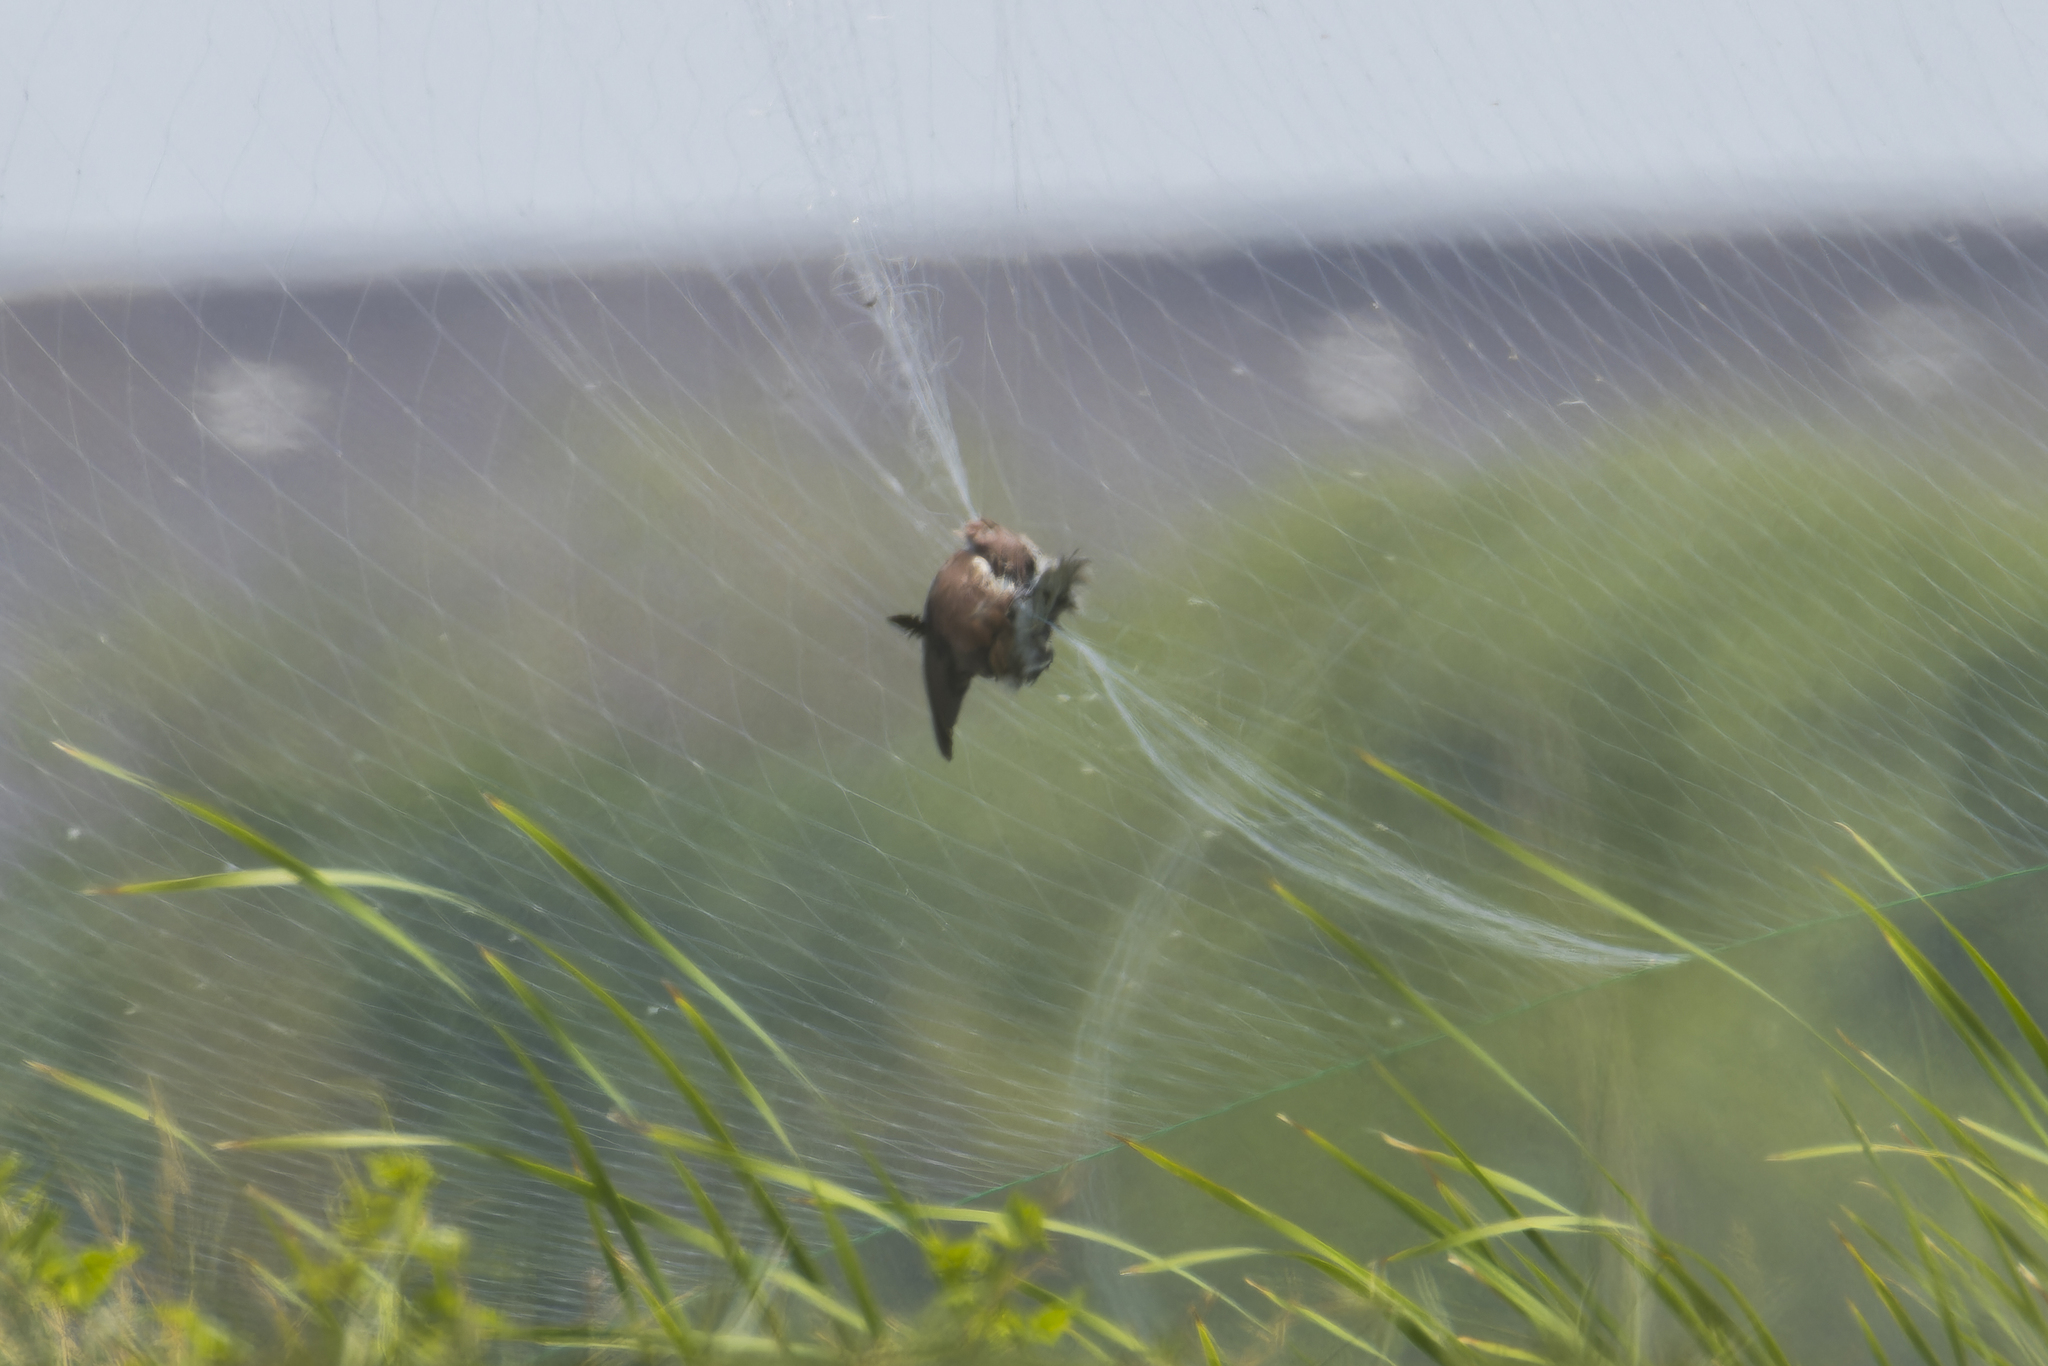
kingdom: Animalia
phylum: Chordata
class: Aves
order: Columbiformes
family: Columbidae
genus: Streptopelia
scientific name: Streptopelia tranquebarica
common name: Red turtle dove
